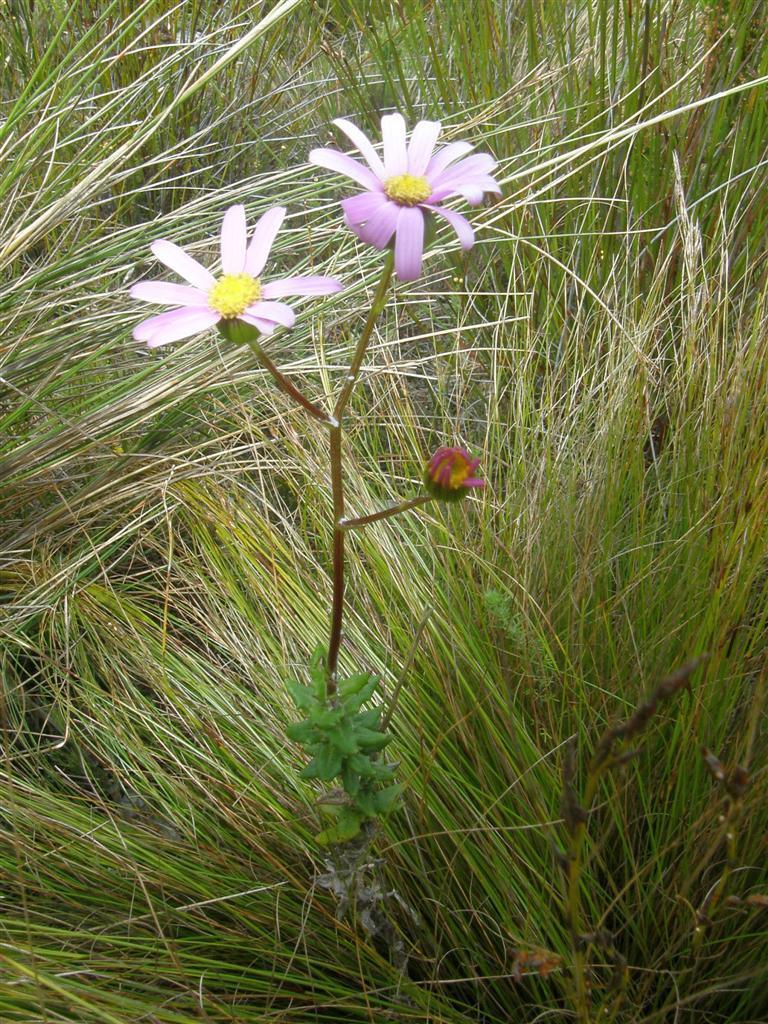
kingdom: Plantae
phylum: Tracheophyta
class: Magnoliopsida
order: Asterales
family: Asteraceae
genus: Senecio
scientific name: Senecio coleophyllus
